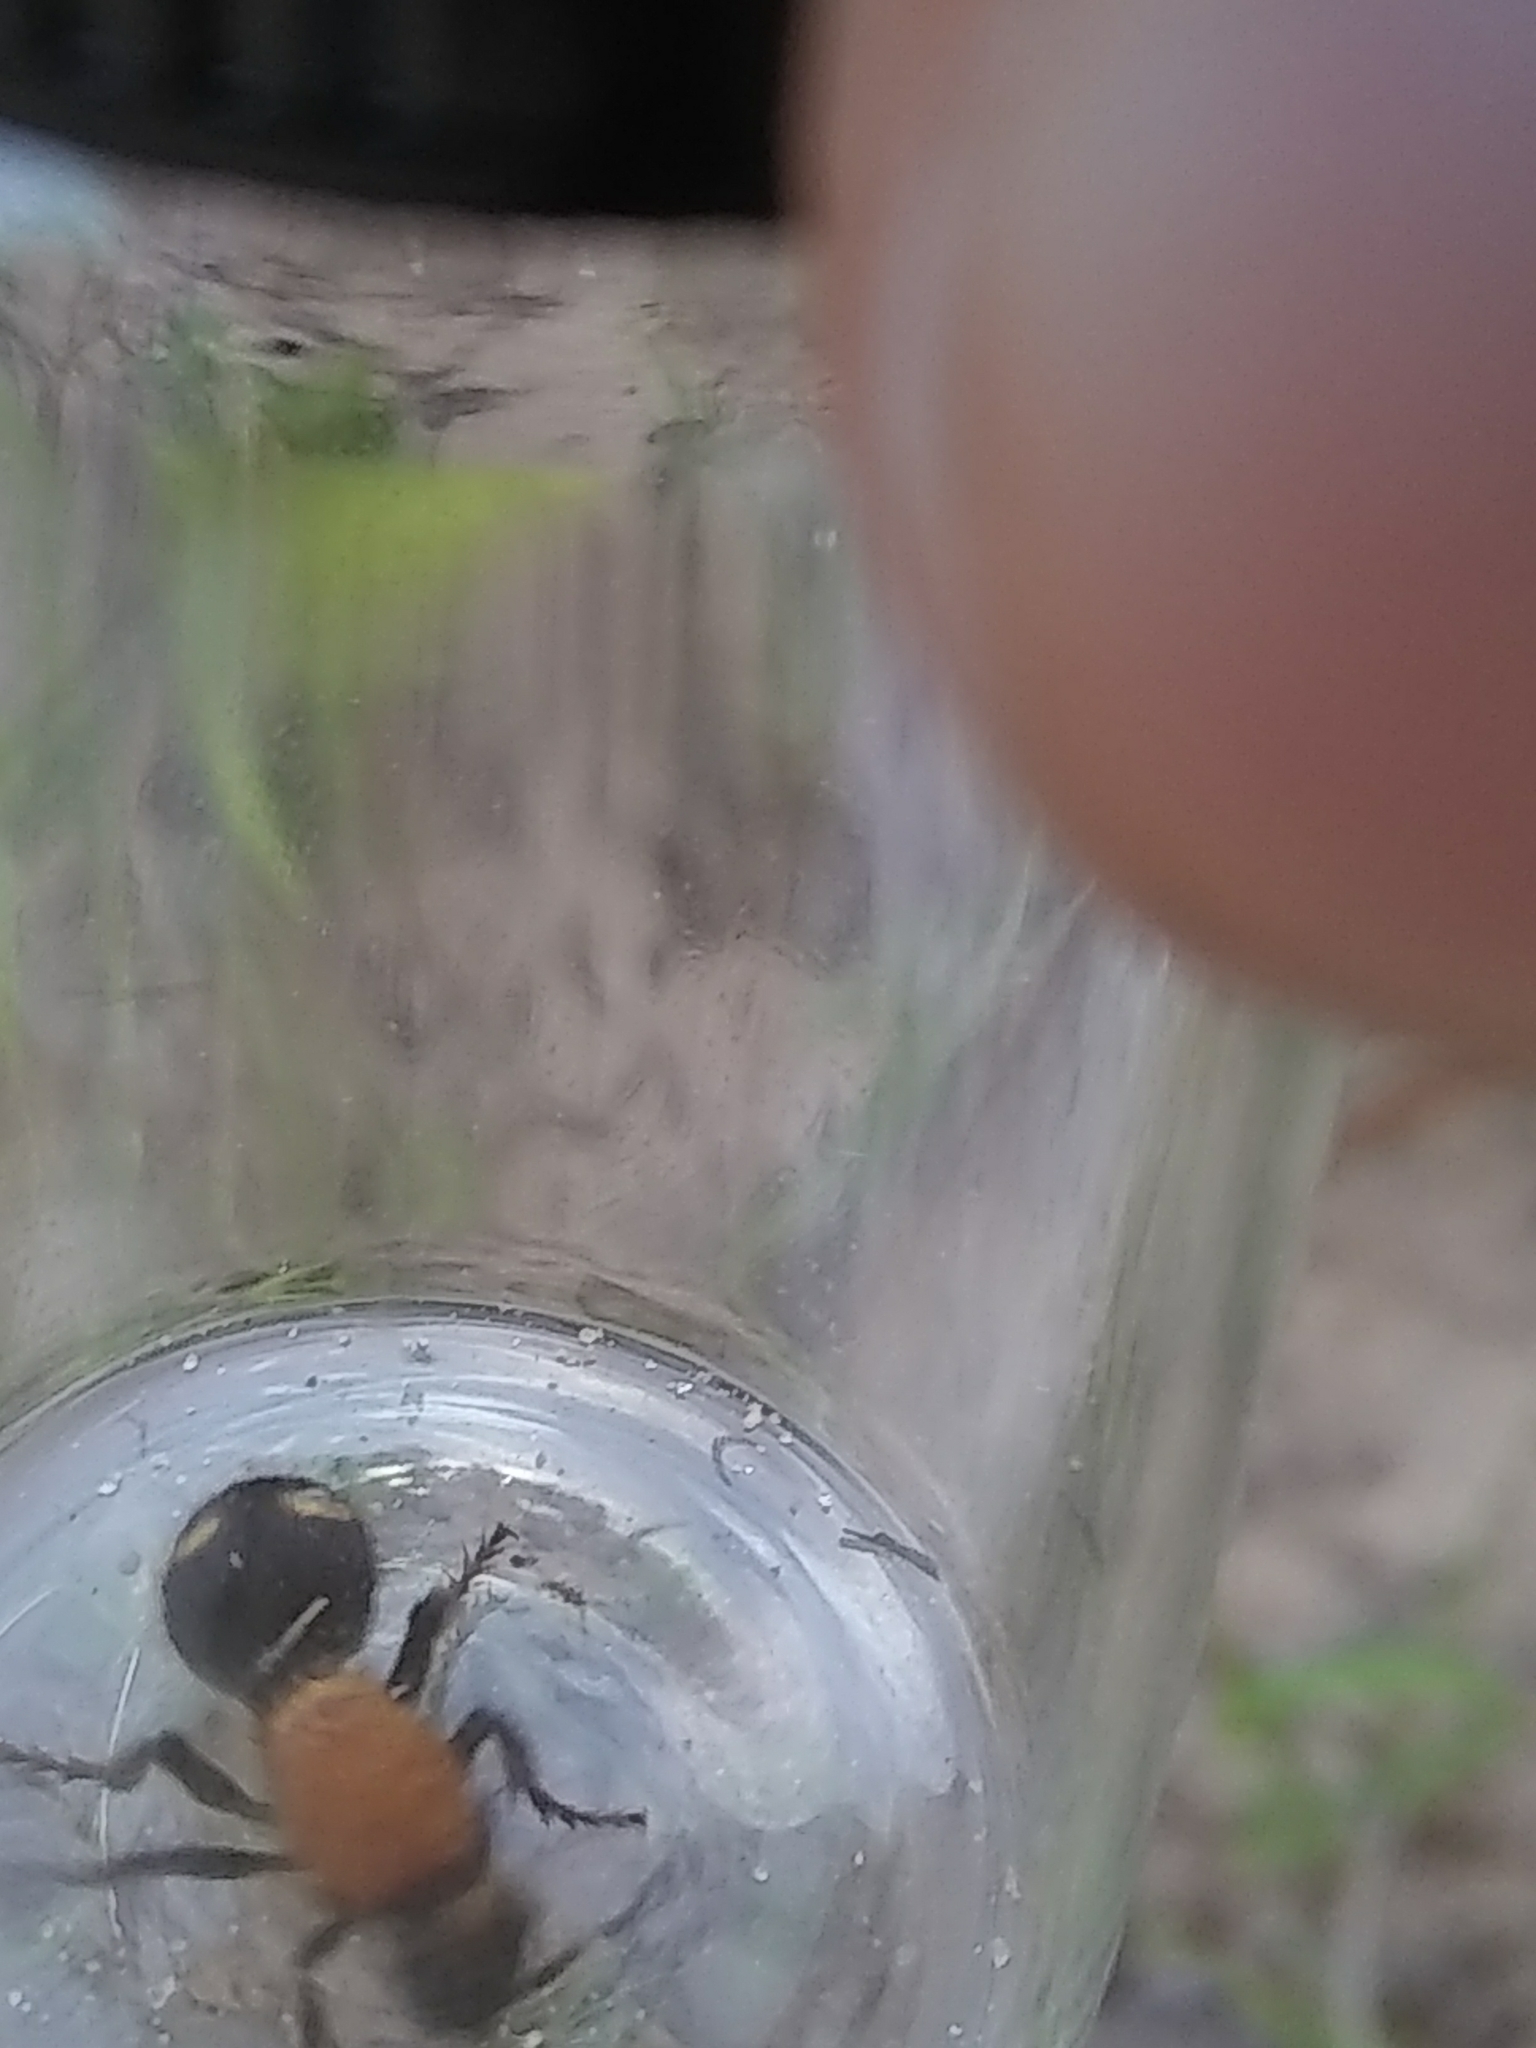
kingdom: Animalia
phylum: Arthropoda
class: Insecta
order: Hymenoptera
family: Mutillidae
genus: Dasymutilla
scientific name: Dasymutilla
